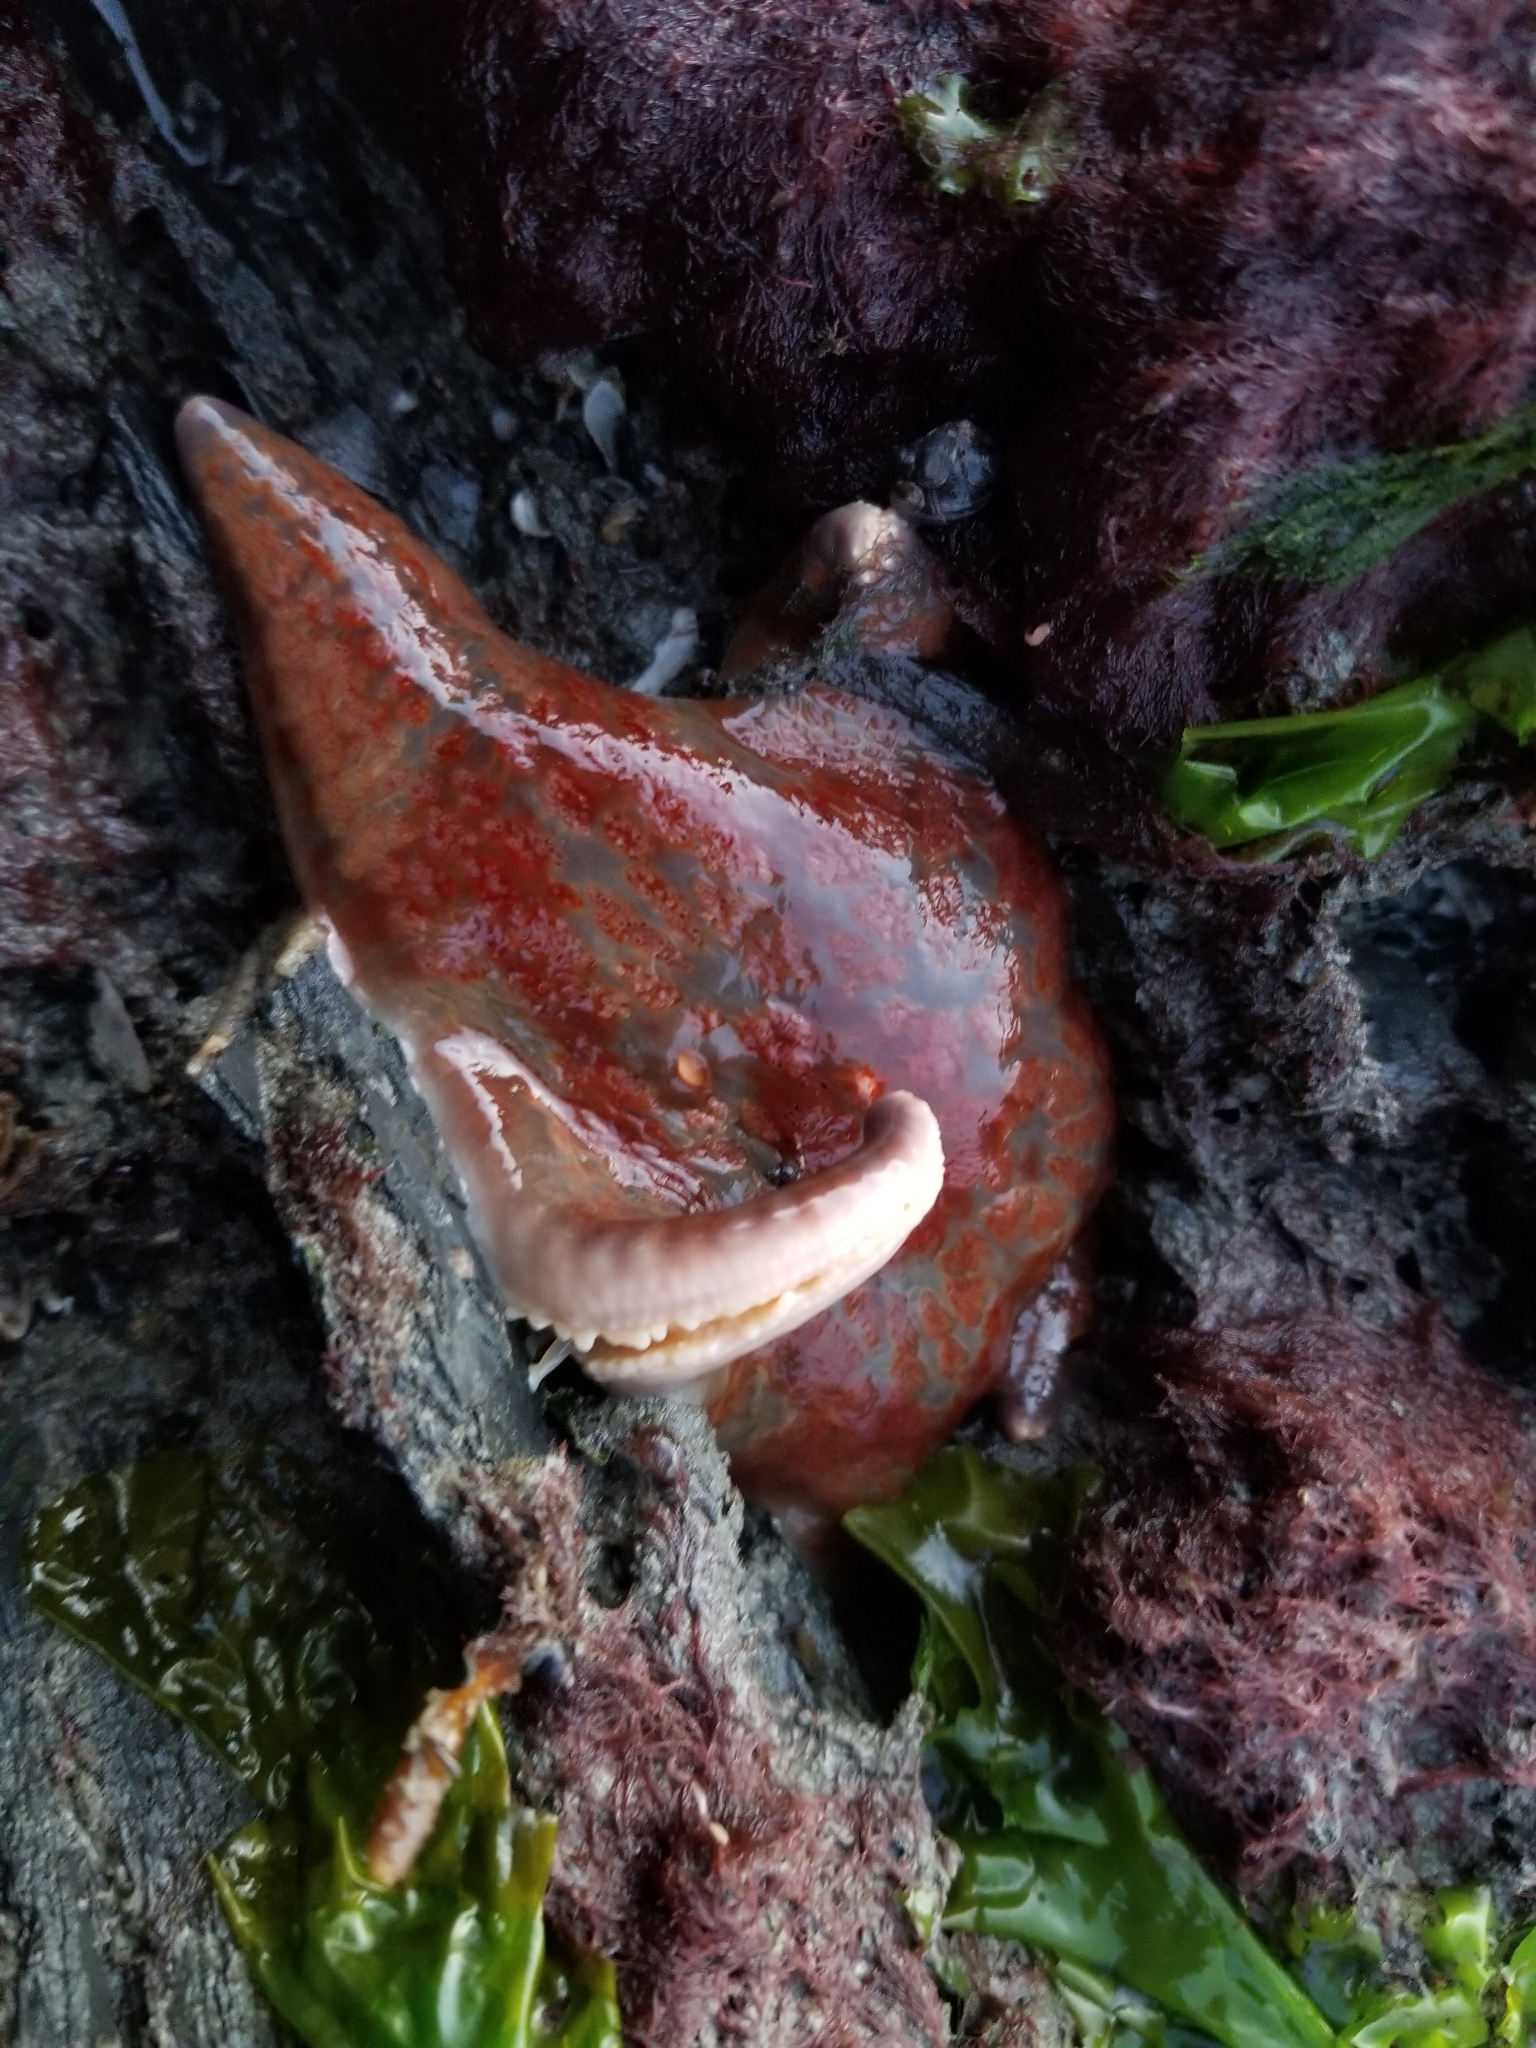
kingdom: Animalia
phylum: Echinodermata
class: Asteroidea
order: Valvatida
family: Asteropseidae
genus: Dermasterias
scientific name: Dermasterias imbricata
